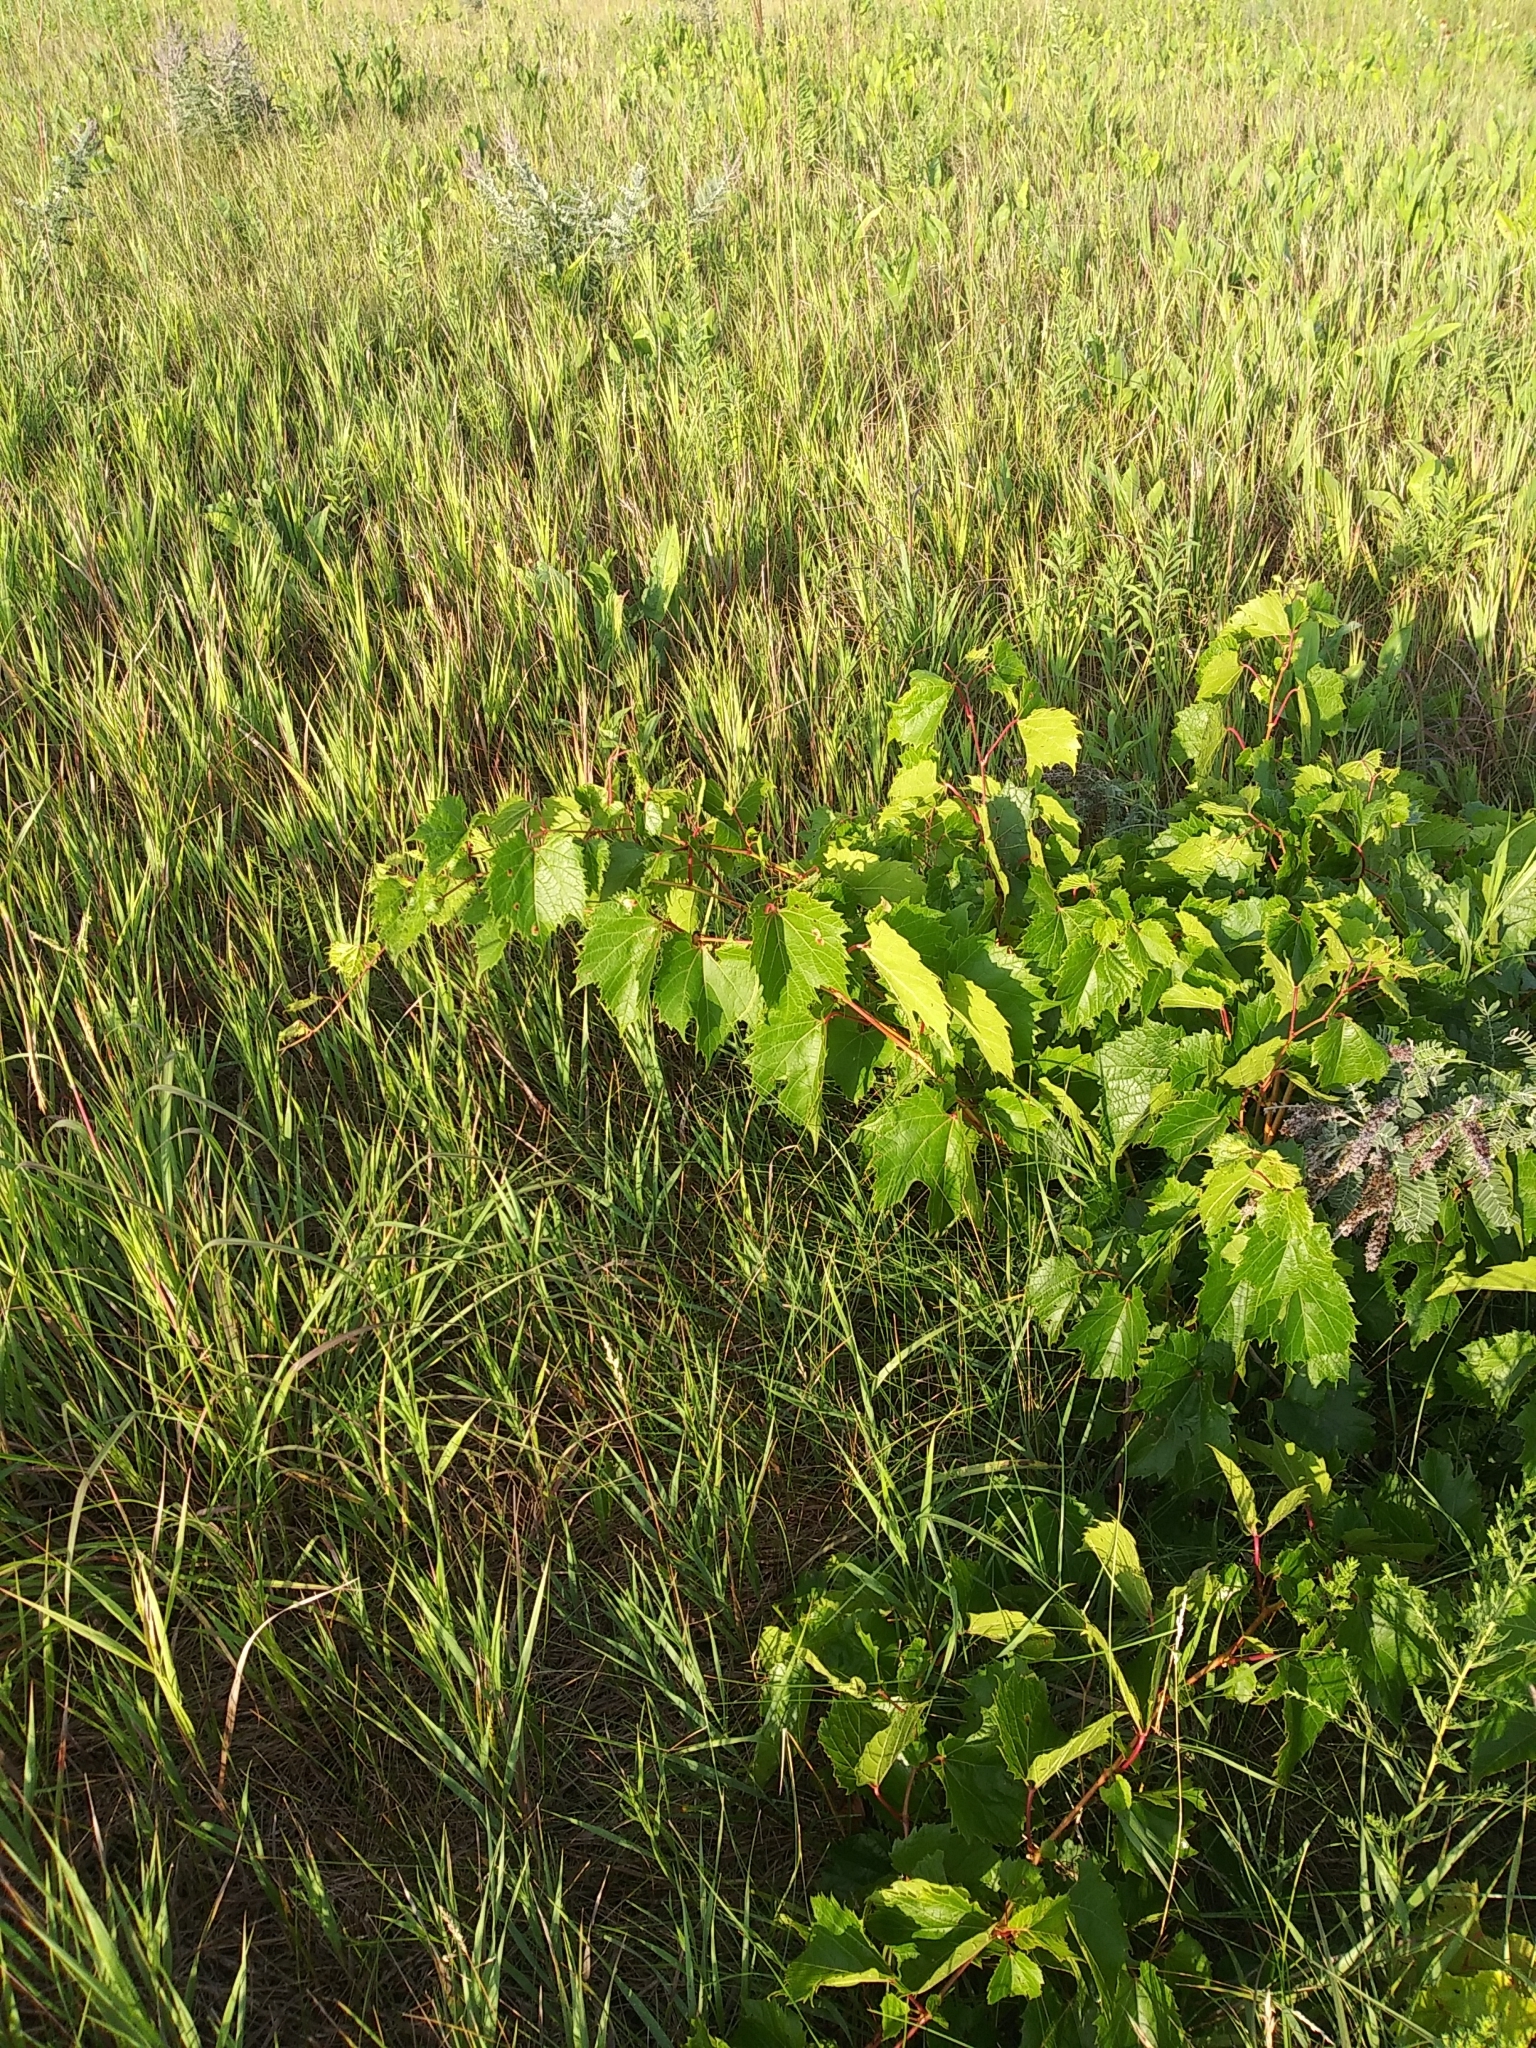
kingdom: Plantae
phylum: Tracheophyta
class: Magnoliopsida
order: Vitales
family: Vitaceae
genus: Vitis
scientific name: Vitis riparia
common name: Frost grape
